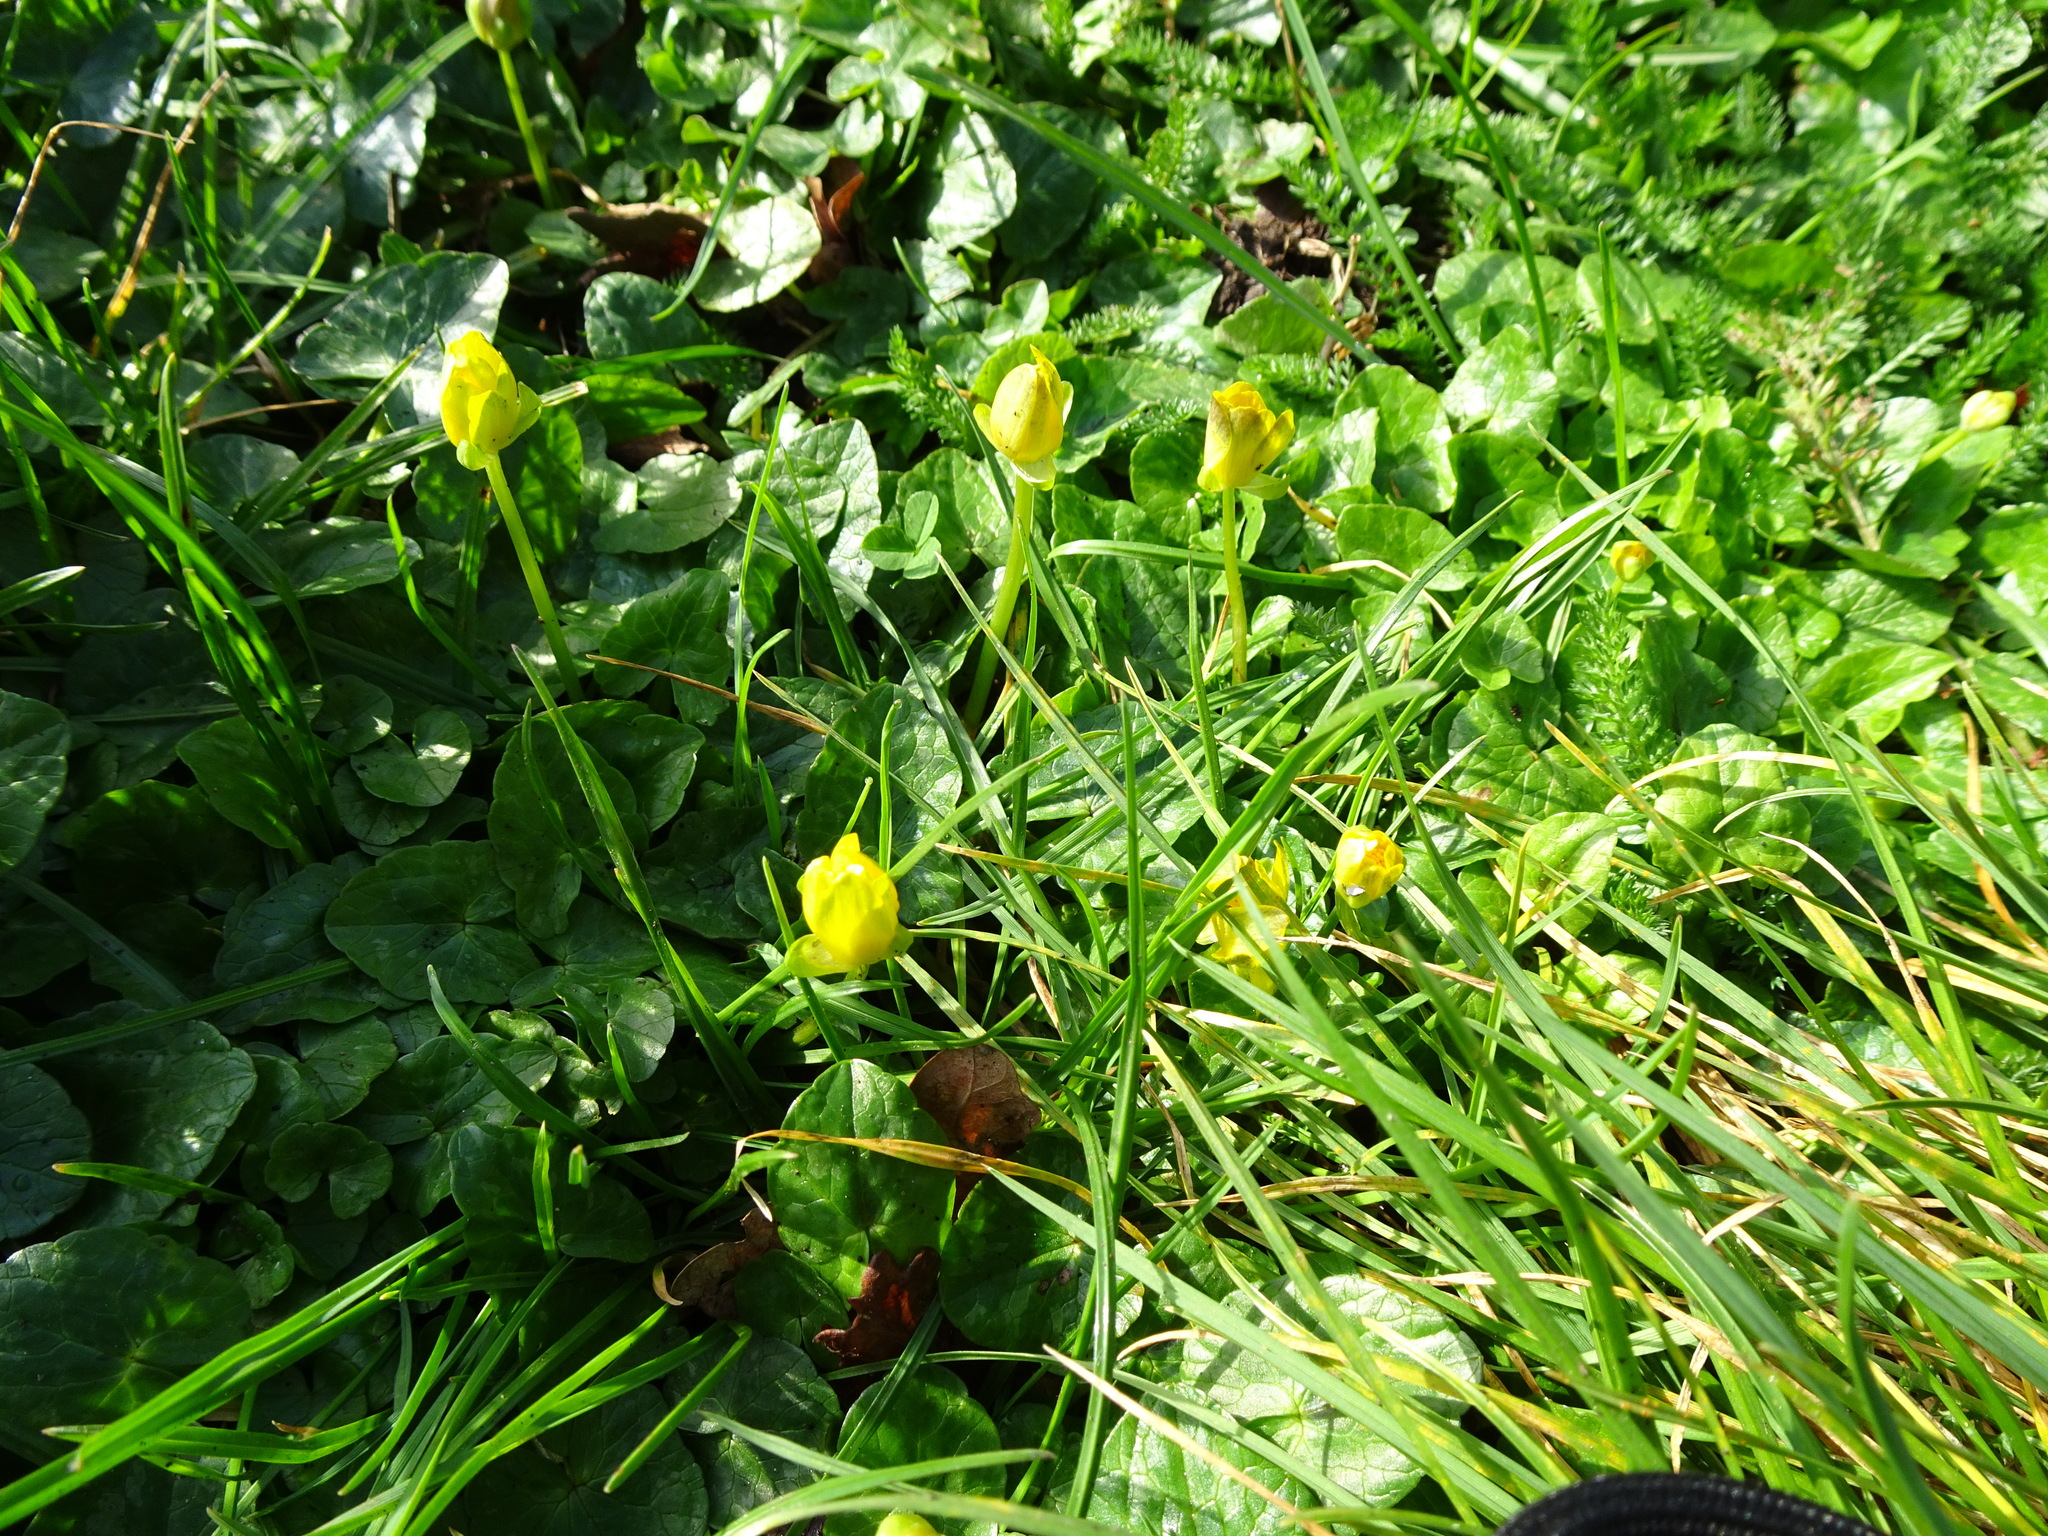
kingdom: Plantae
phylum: Tracheophyta
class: Magnoliopsida
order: Ranunculales
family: Ranunculaceae
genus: Ficaria
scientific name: Ficaria verna
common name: Lesser celandine
